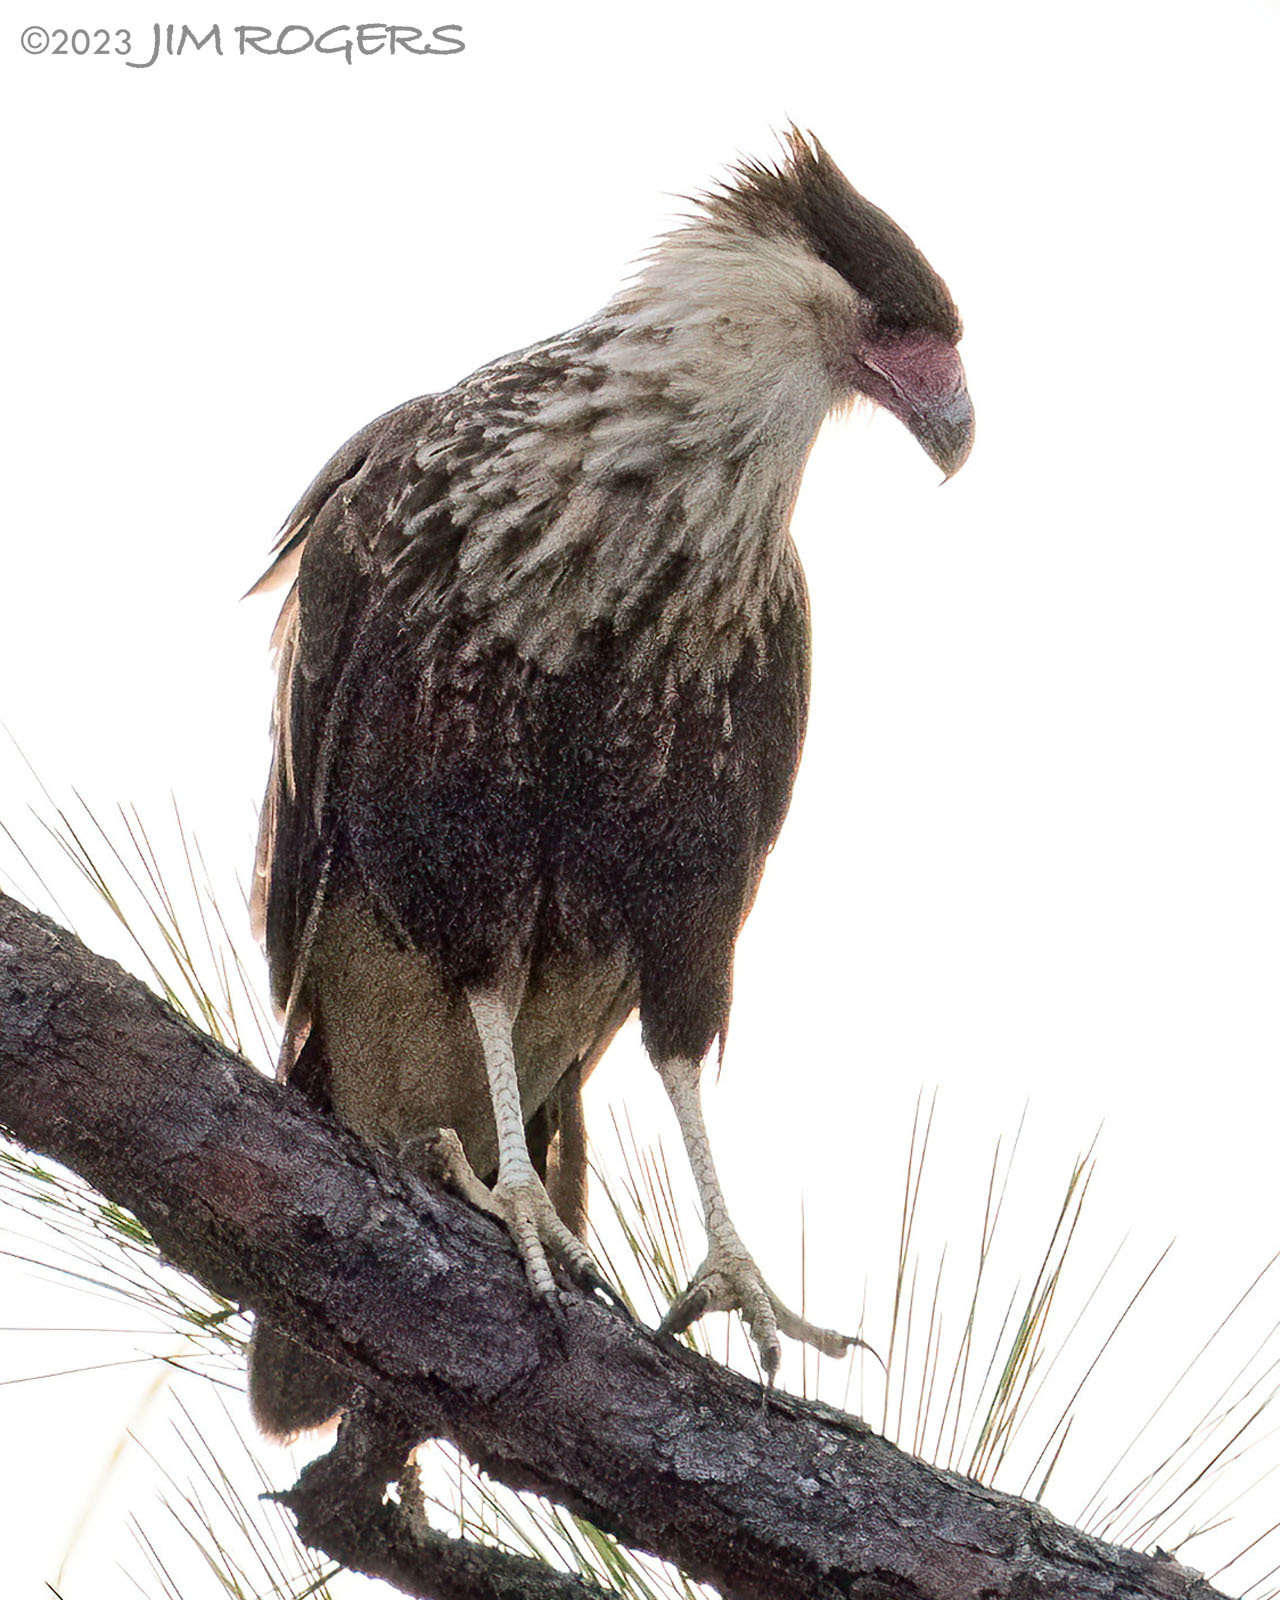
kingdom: Animalia
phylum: Chordata
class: Aves
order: Falconiformes
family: Falconidae
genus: Caracara
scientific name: Caracara plancus
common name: Southern caracara
